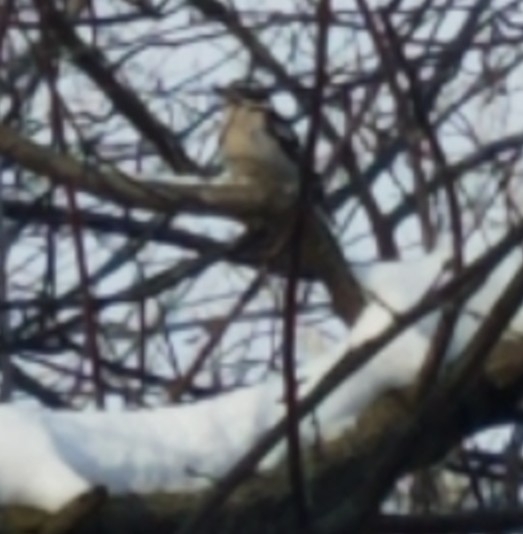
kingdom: Animalia
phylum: Chordata
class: Aves
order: Piciformes
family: Picidae
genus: Dryobates
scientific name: Dryobates pubescens
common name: Downy woodpecker
